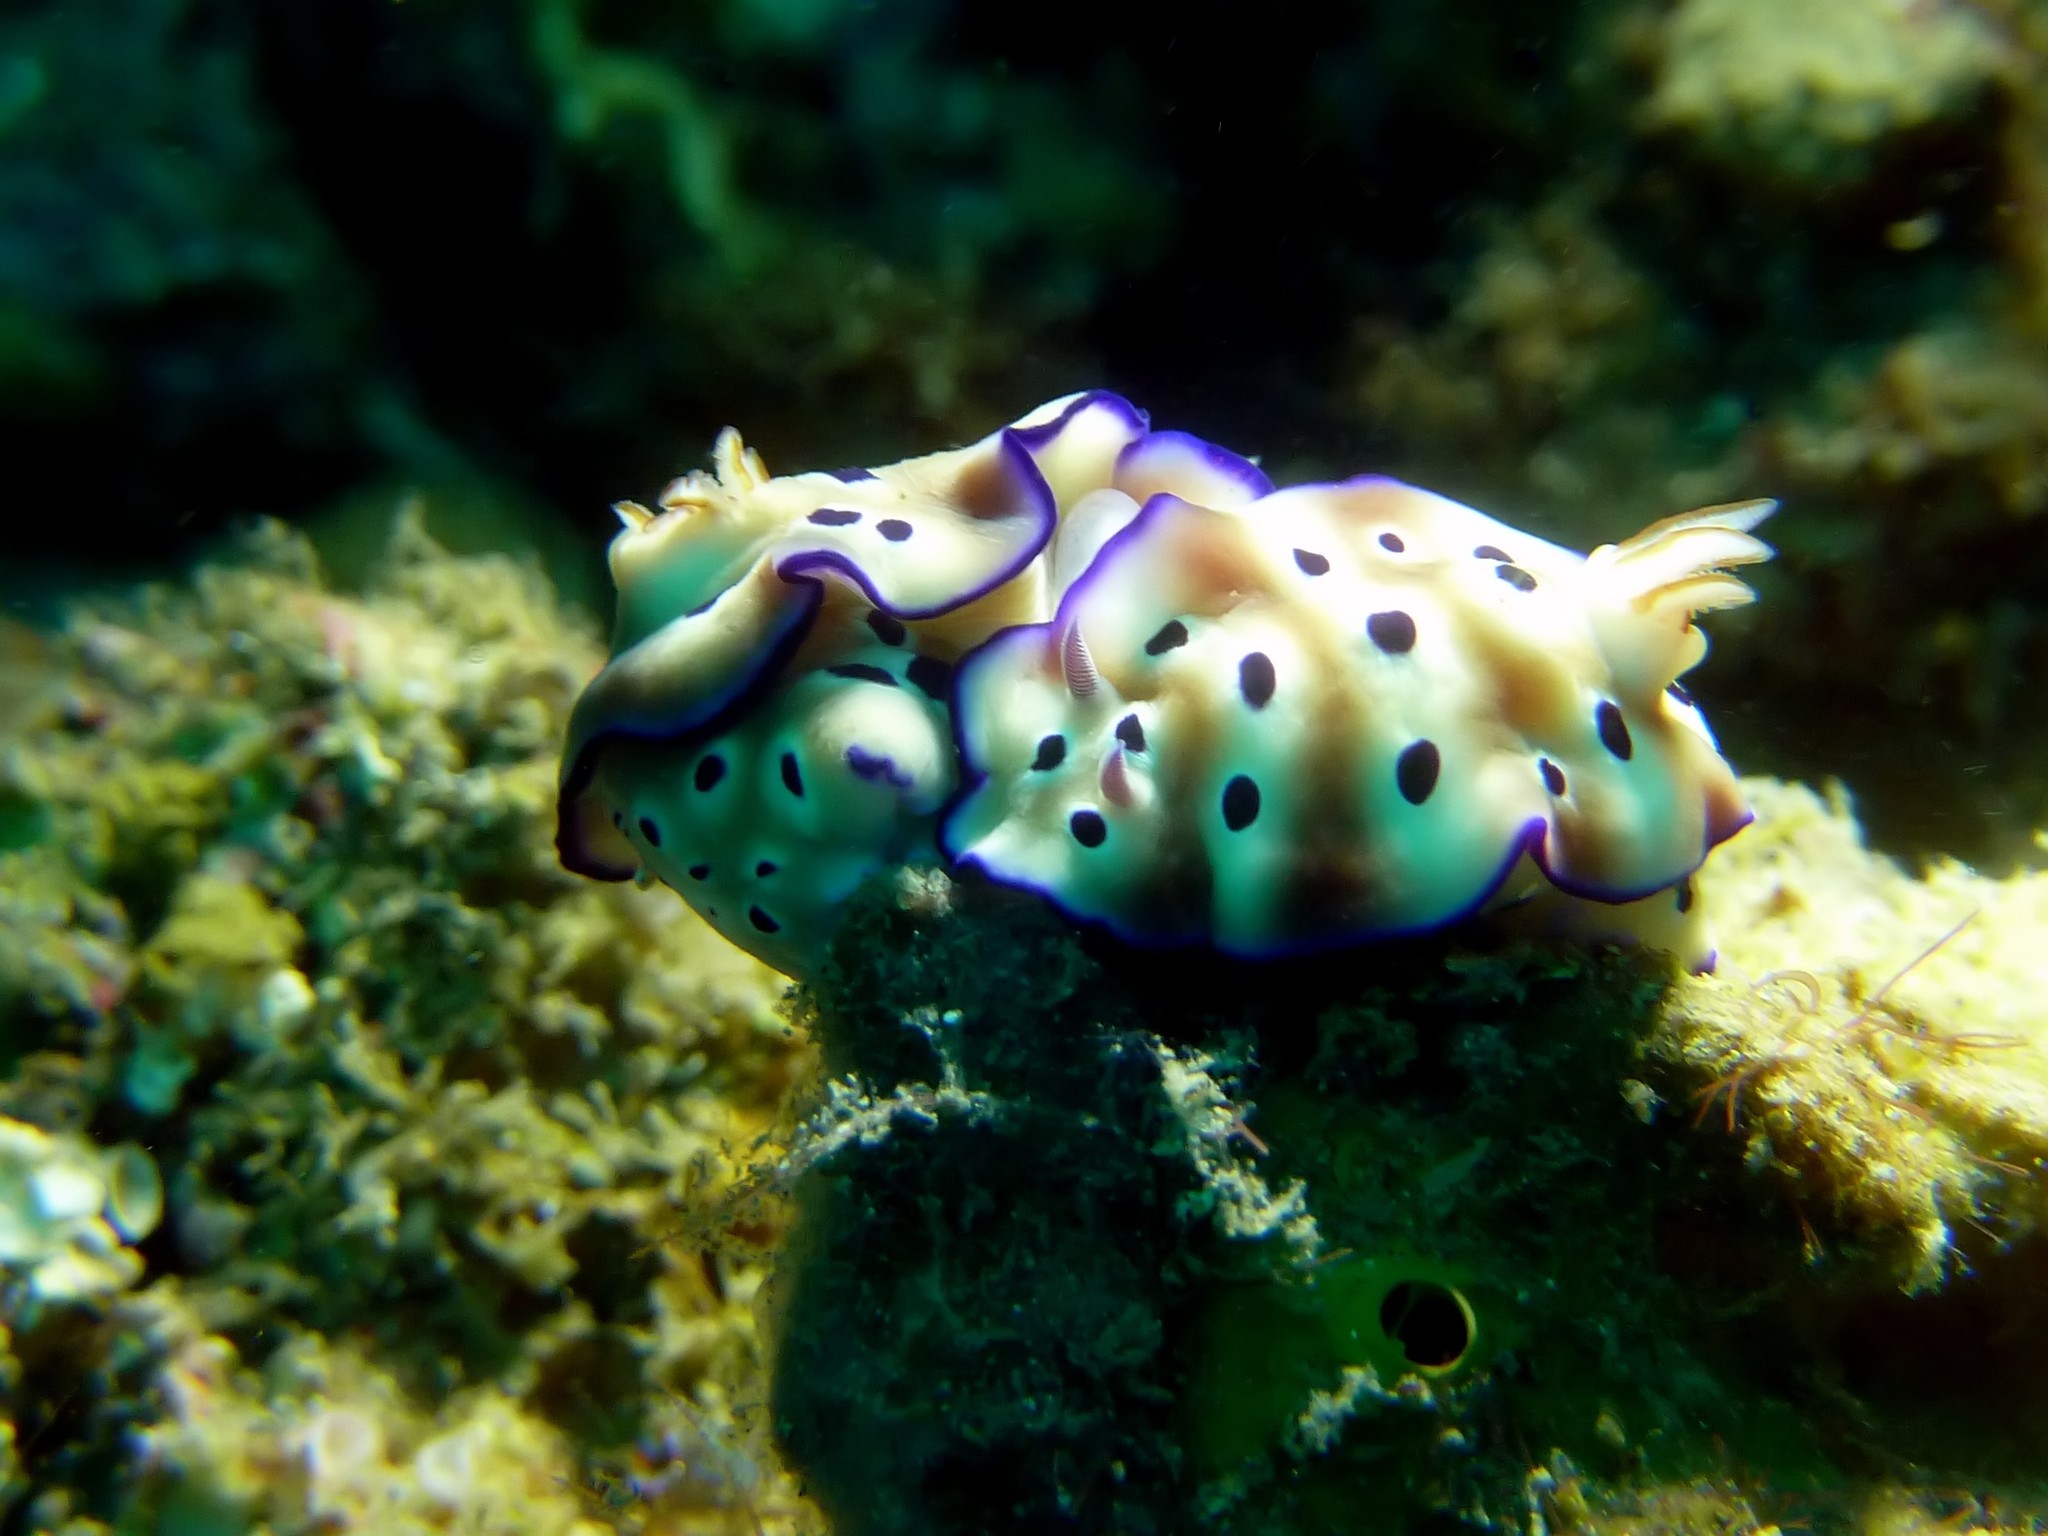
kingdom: Animalia
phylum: Mollusca
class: Gastropoda
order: Nudibranchia
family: Chromodorididae
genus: Hypselodoris
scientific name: Hypselodoris tryoni
